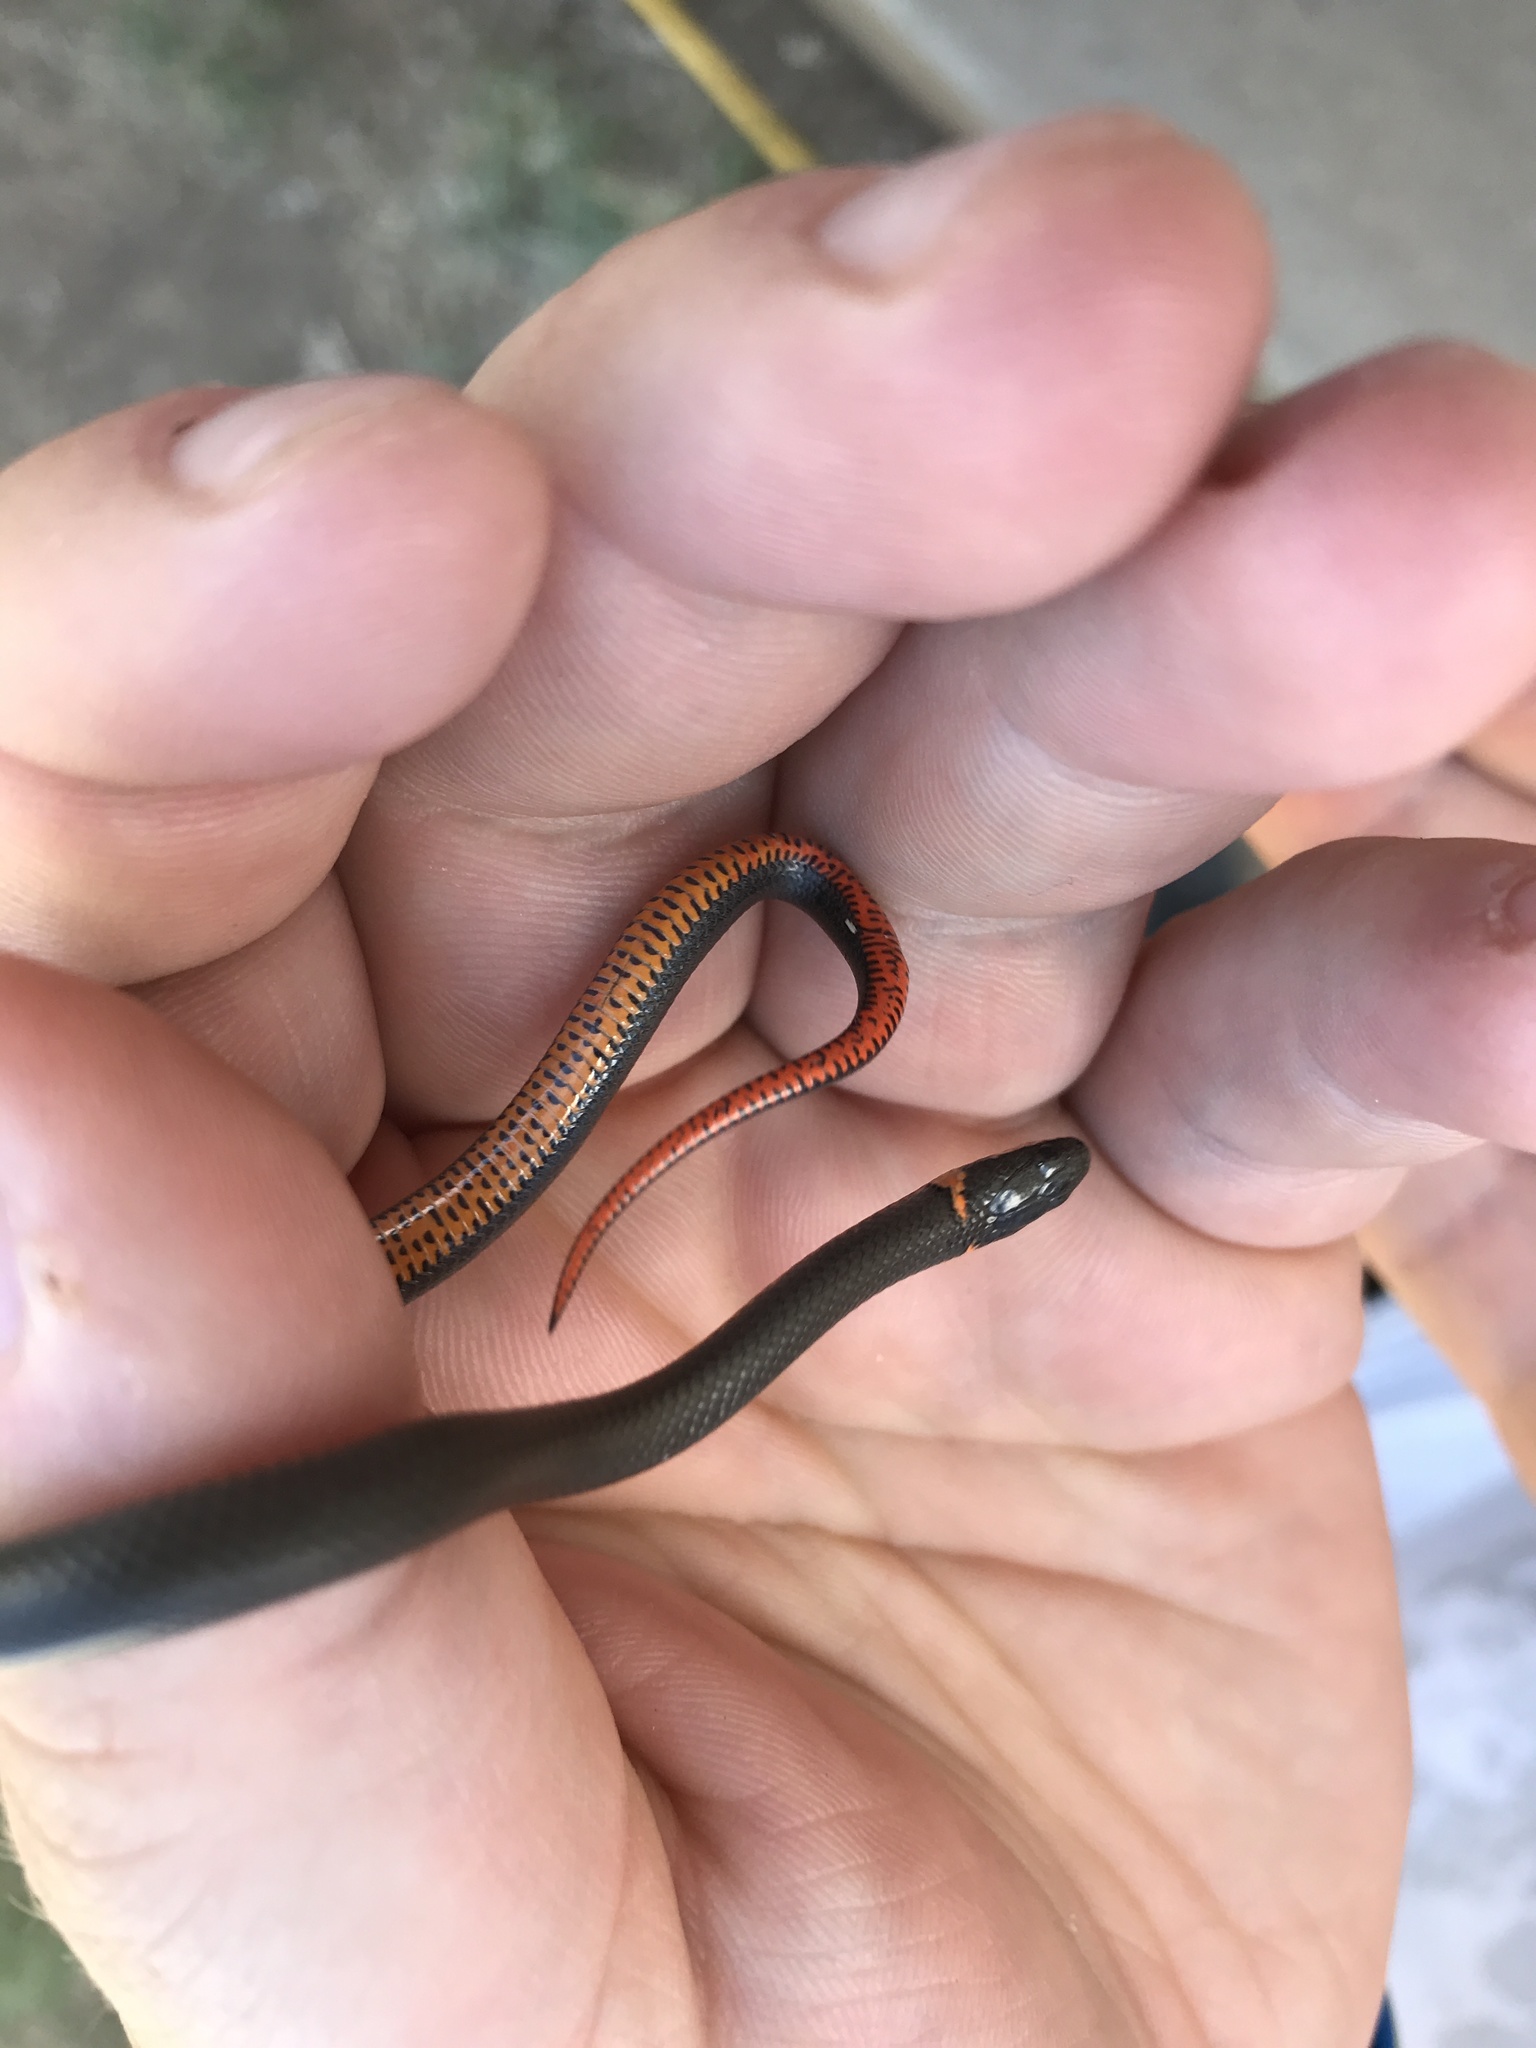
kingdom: Animalia
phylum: Chordata
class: Squamata
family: Colubridae
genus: Diadophis
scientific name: Diadophis punctatus
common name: Ringneck snake
